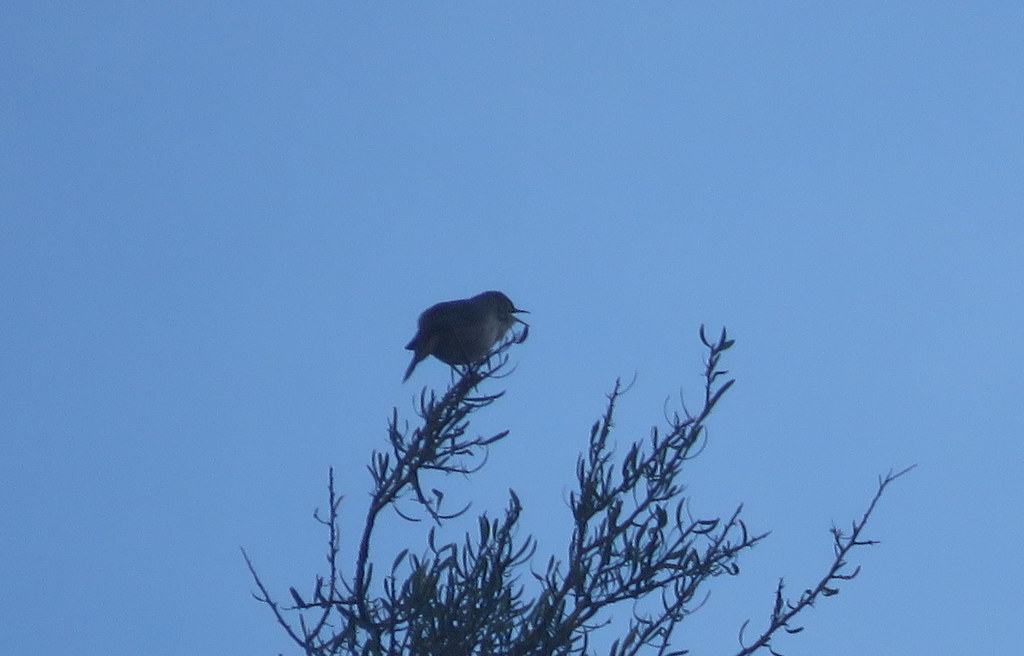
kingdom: Animalia
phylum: Chordata
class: Aves
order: Passeriformes
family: Troglodytidae
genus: Troglodytes
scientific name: Troglodytes aedon
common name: House wren
